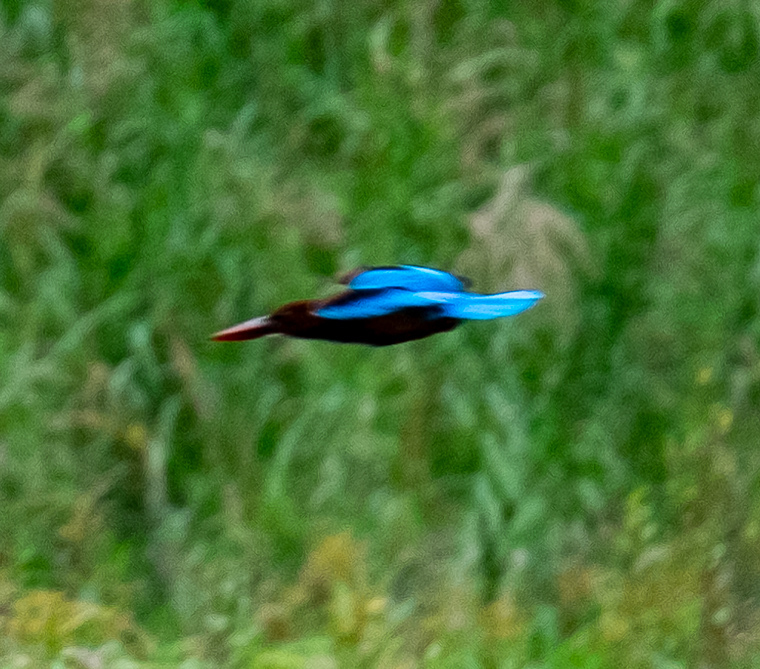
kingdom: Animalia
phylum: Chordata
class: Aves
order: Coraciiformes
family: Alcedinidae
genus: Halcyon
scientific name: Halcyon smyrnensis
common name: White-throated kingfisher
